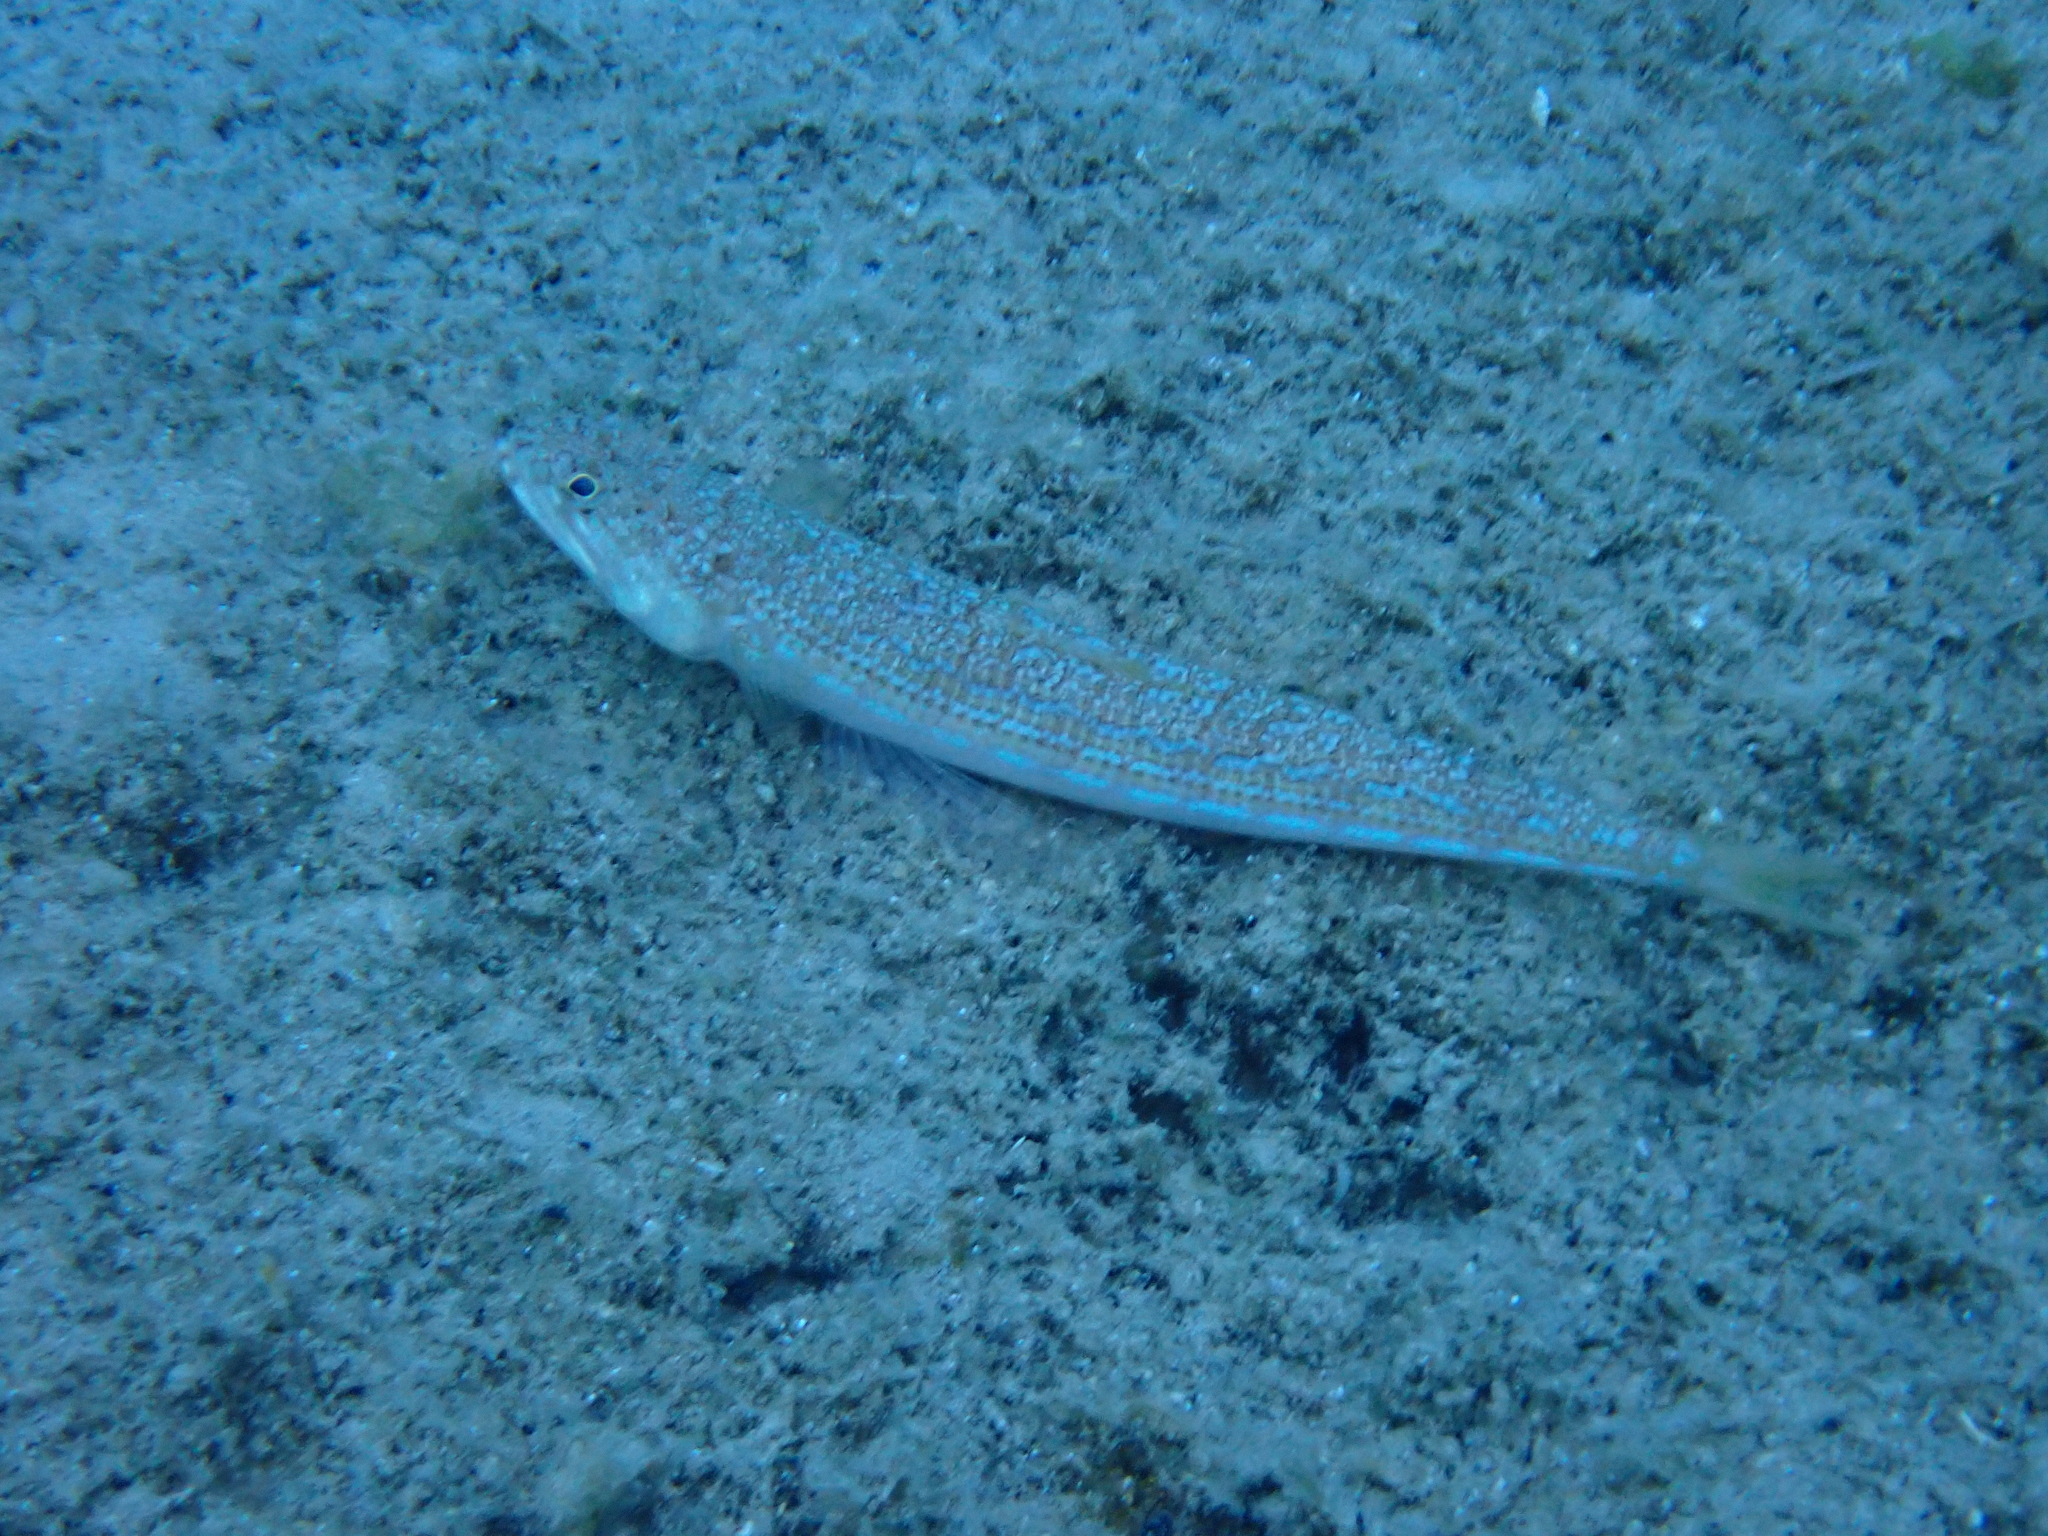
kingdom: Animalia
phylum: Chordata
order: Aulopiformes
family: Synodontidae
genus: Synodus
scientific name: Synodus saurus
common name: Atlantic lizardfish
